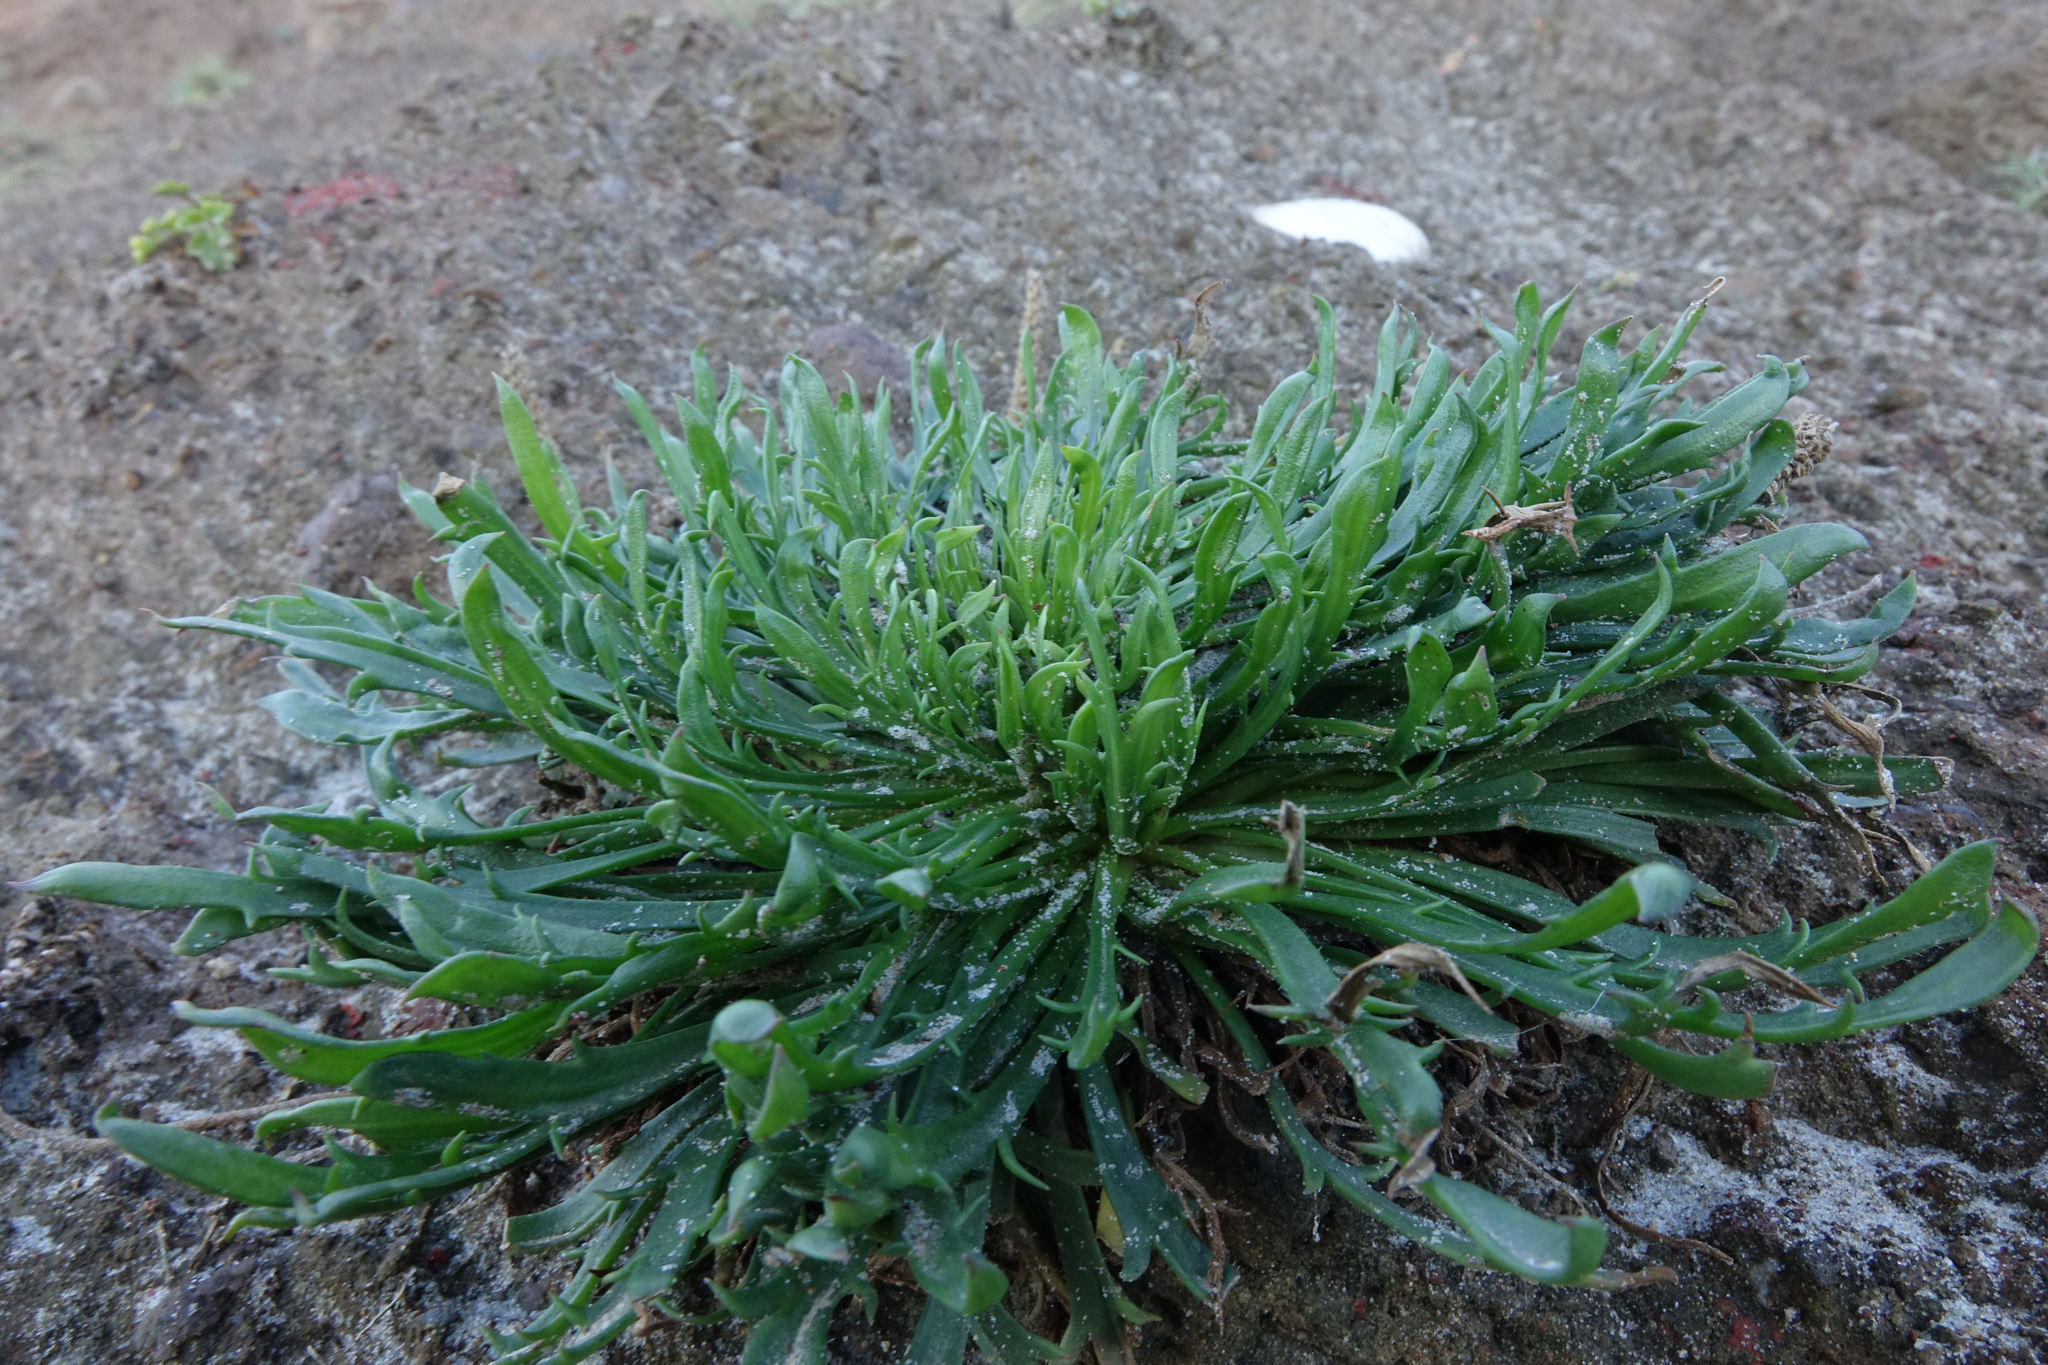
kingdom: Plantae
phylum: Tracheophyta
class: Magnoliopsida
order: Lamiales
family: Plantaginaceae
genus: Plantago
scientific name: Plantago coronopus
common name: Buck's-horn plantain
